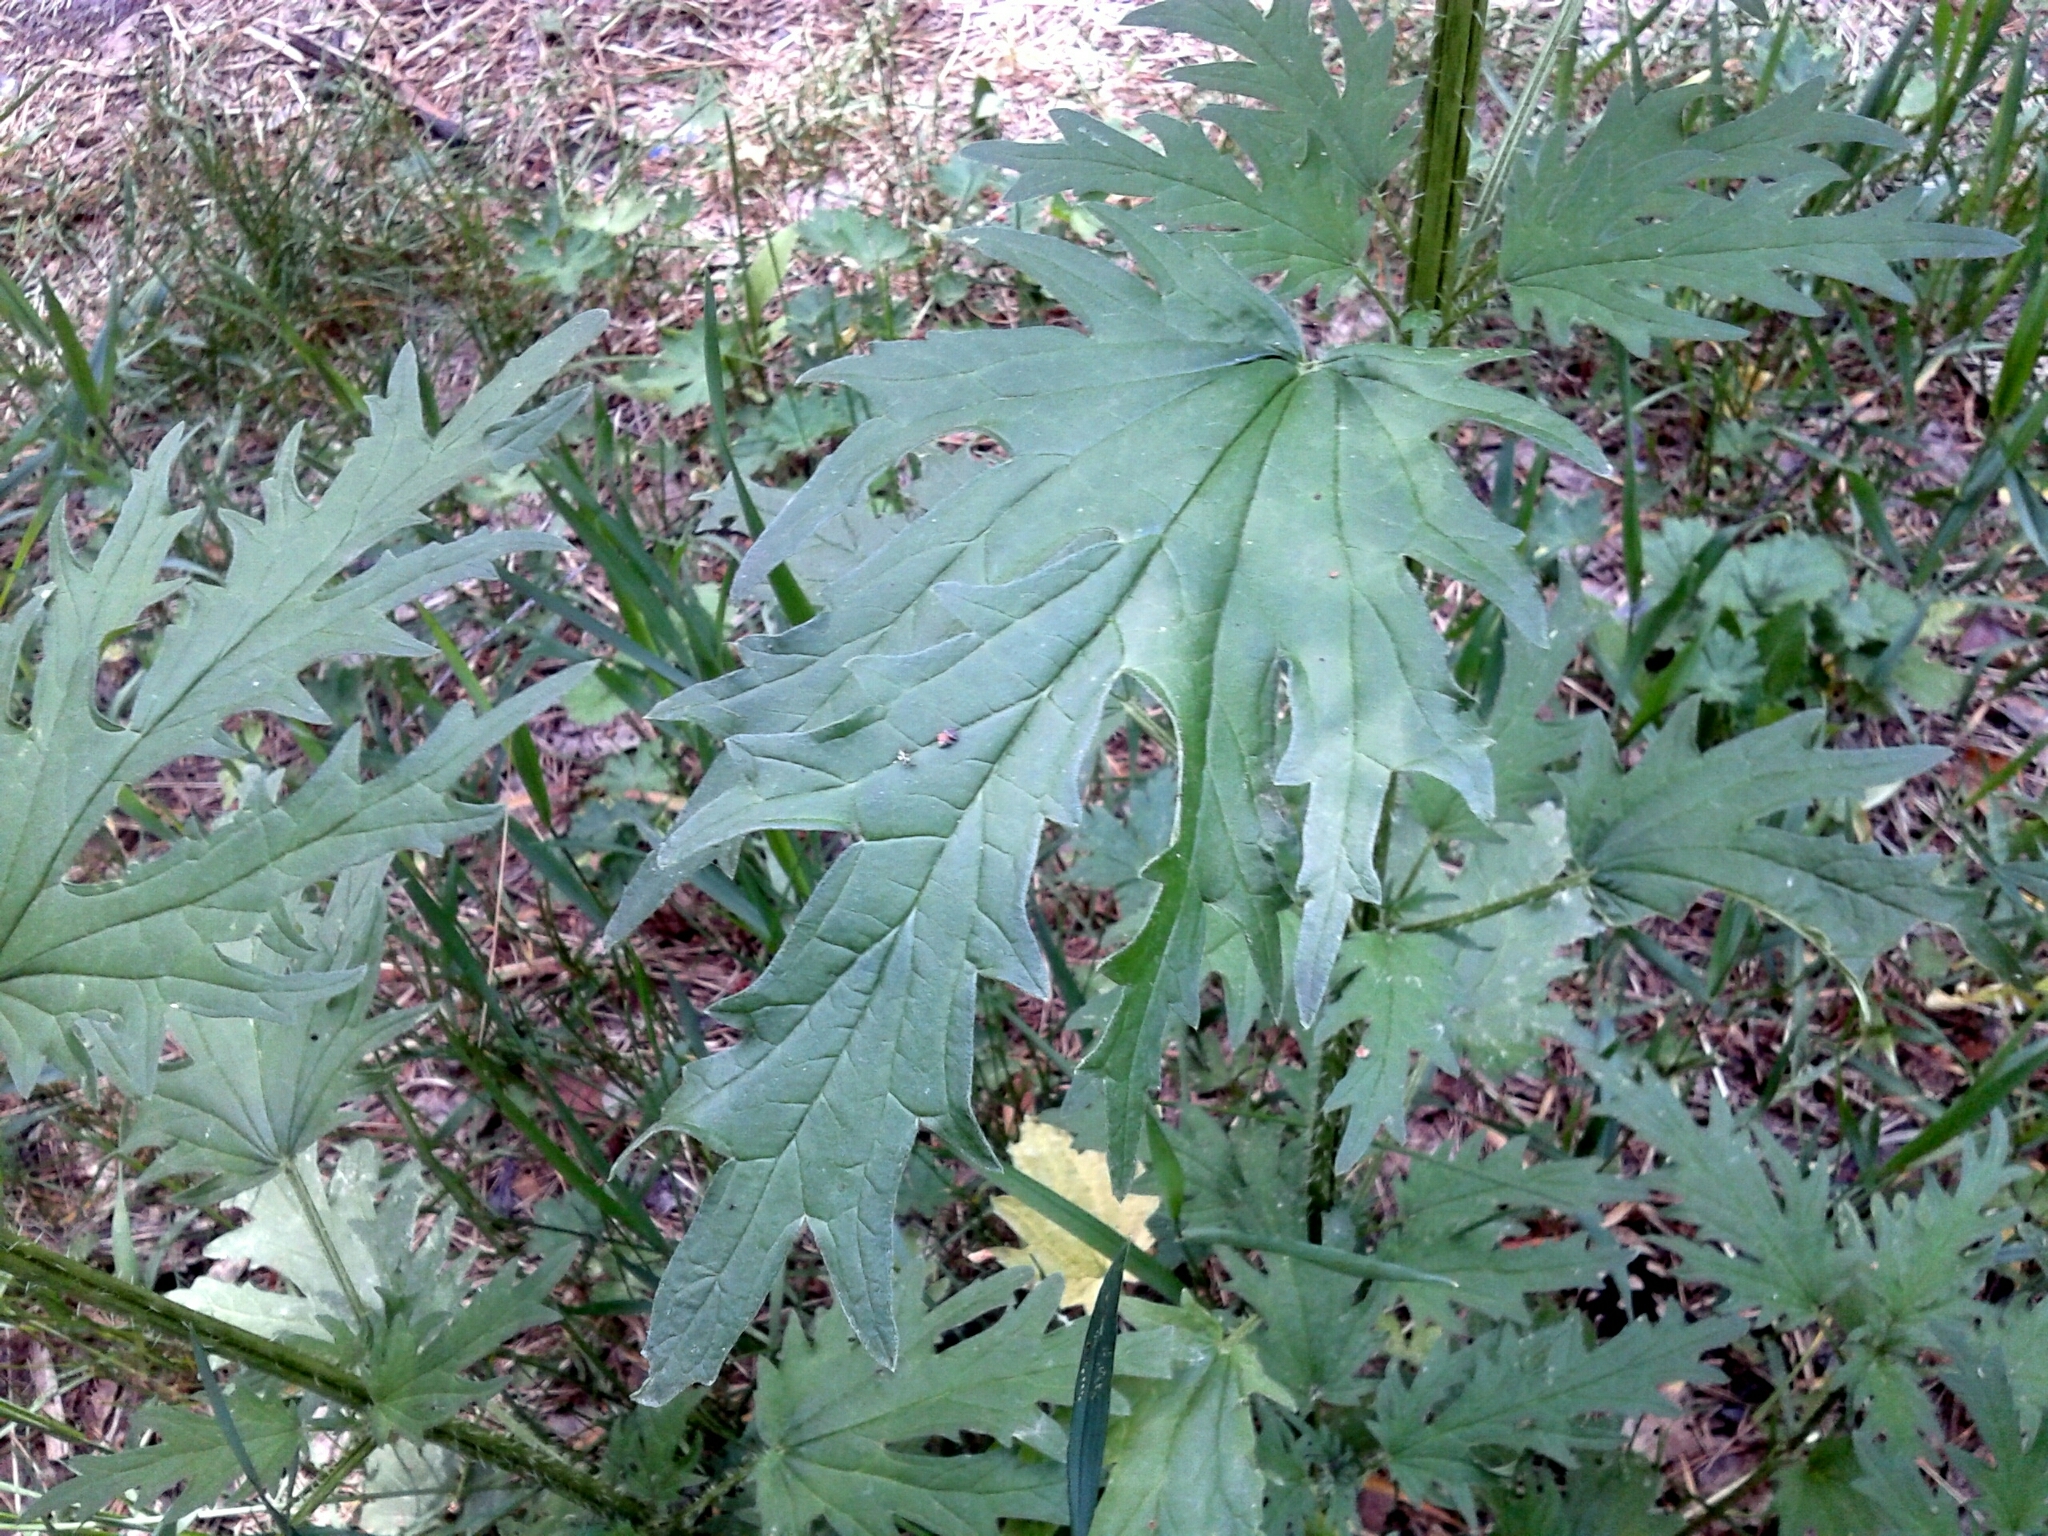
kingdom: Plantae
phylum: Tracheophyta
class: Magnoliopsida
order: Rosales
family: Urticaceae
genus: Urtica
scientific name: Urtica cannabina
